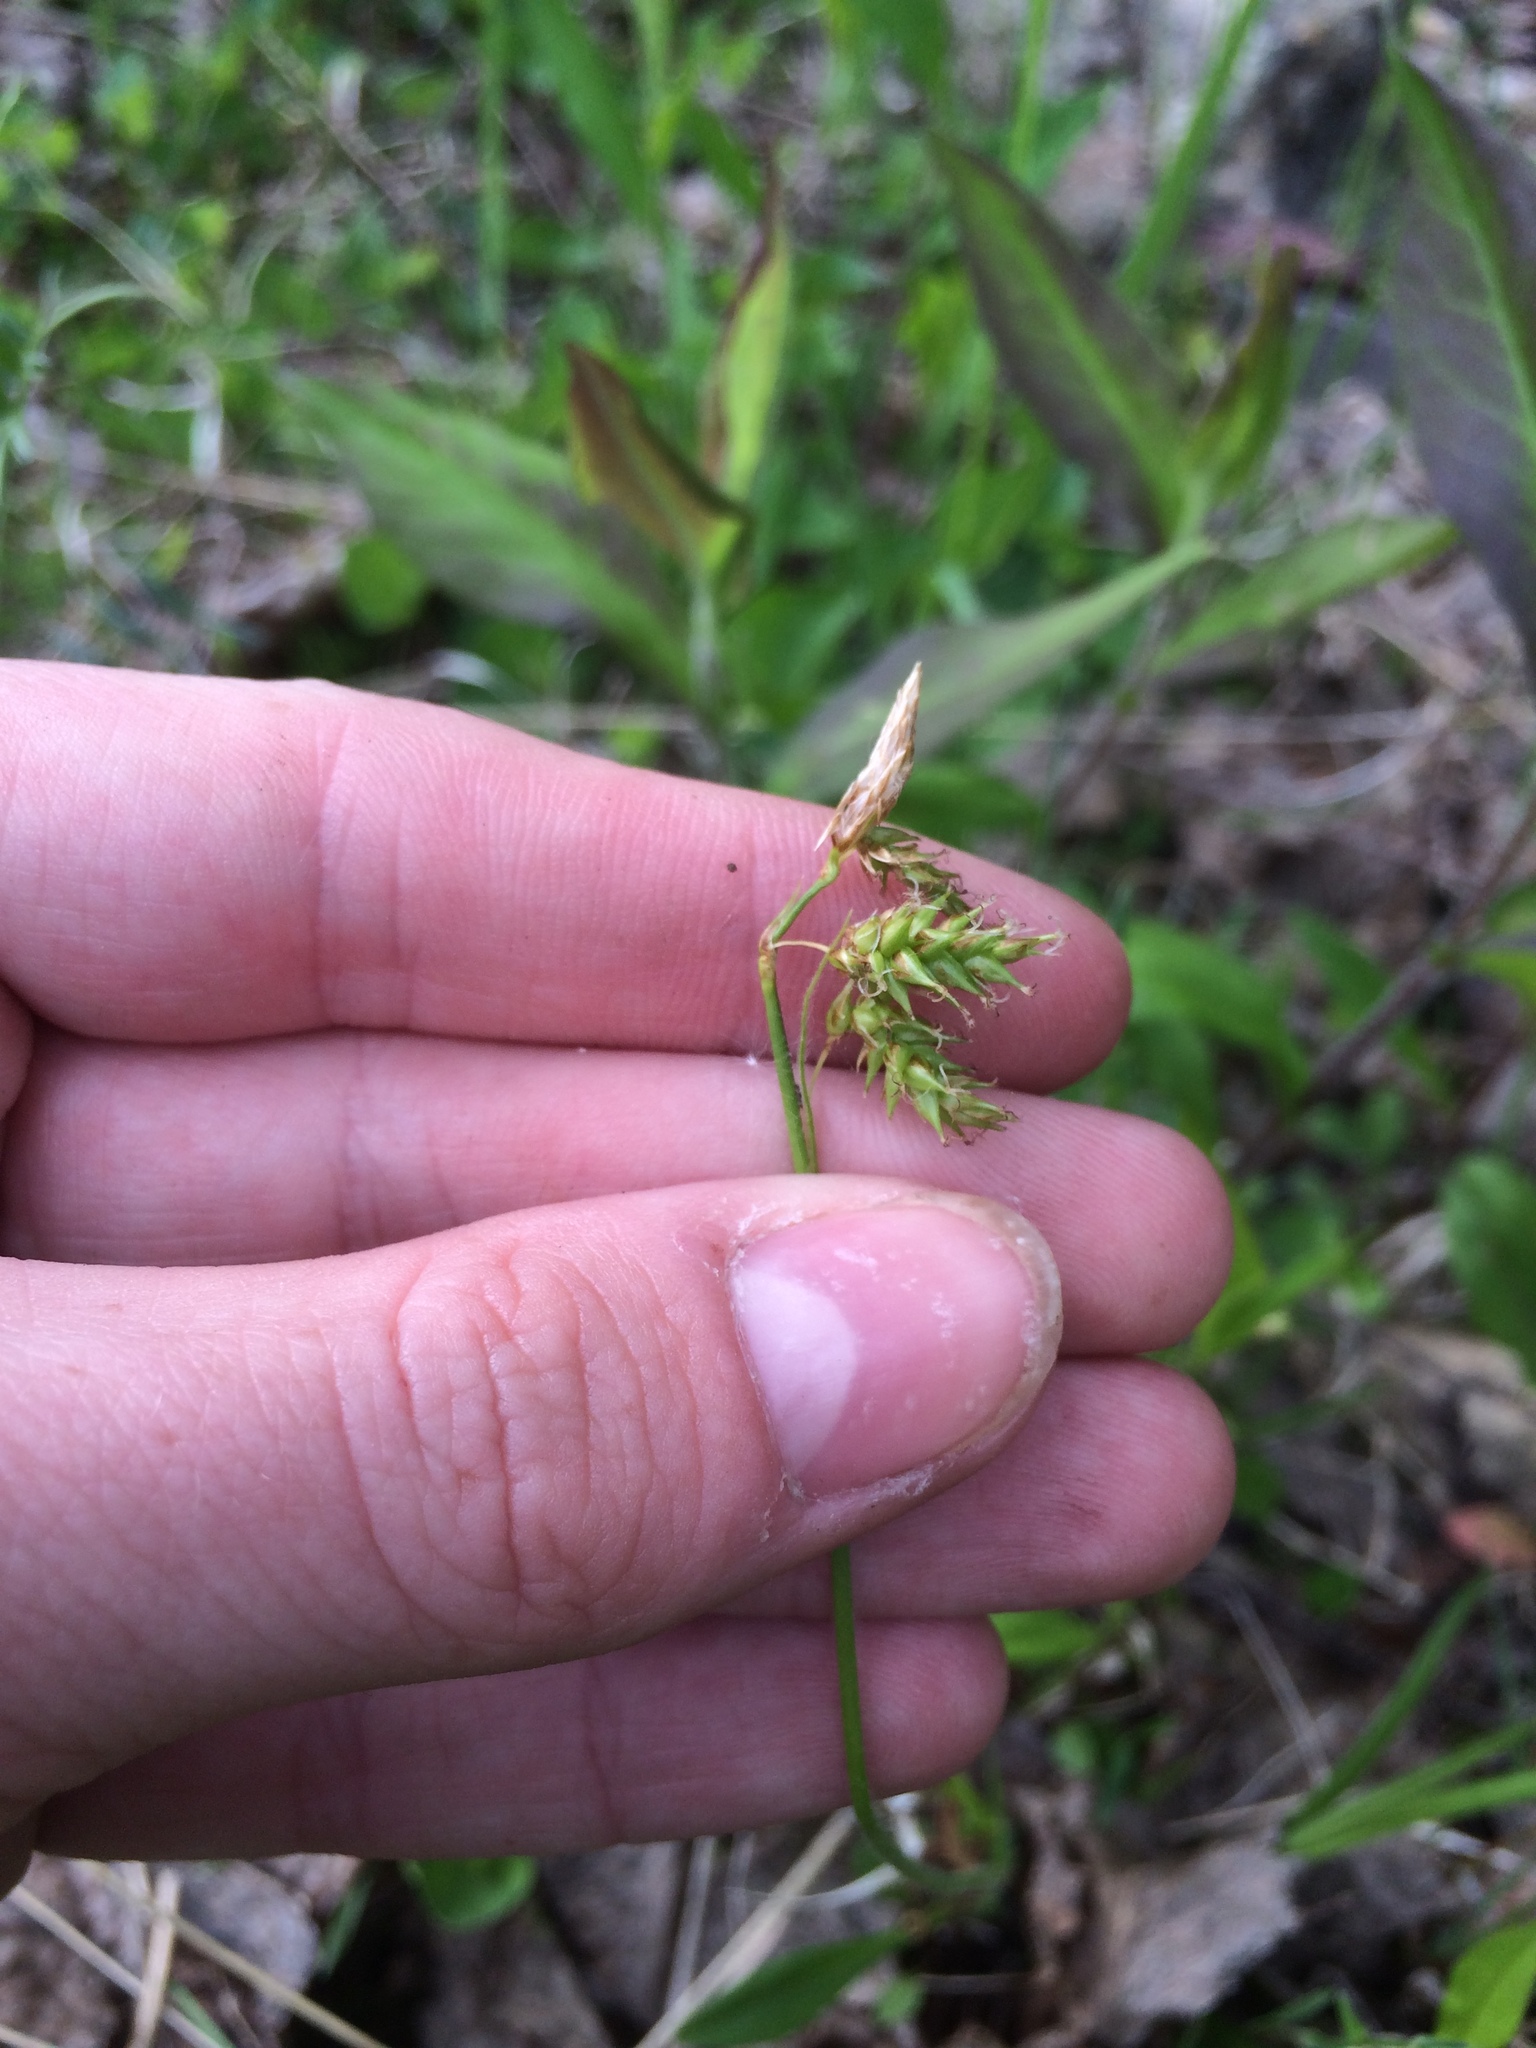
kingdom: Plantae
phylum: Tracheophyta
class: Liliopsida
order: Poales
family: Cyperaceae
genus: Carex
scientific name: Carex castanea
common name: Chestnut sedge
